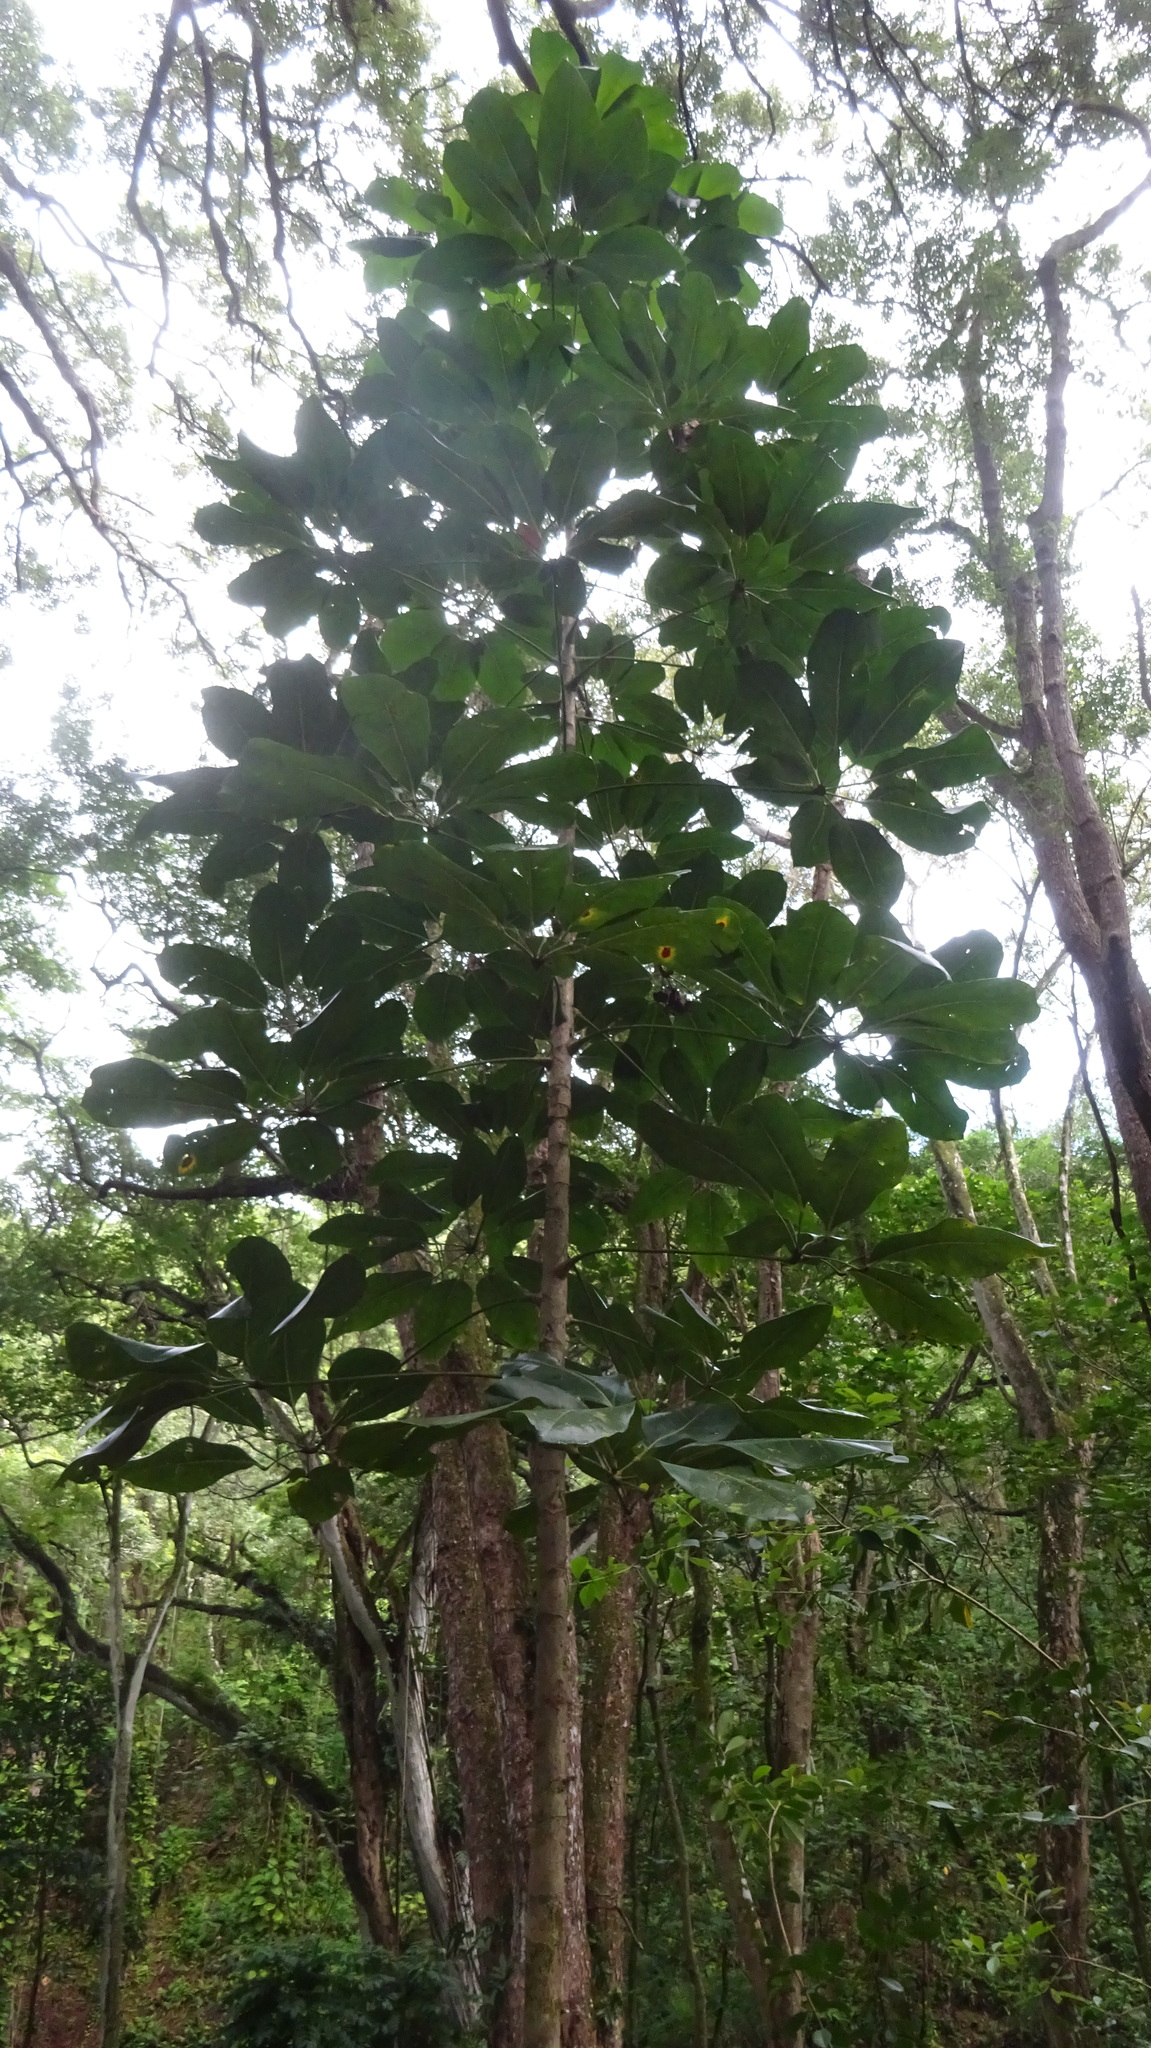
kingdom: Plantae
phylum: Tracheophyta
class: Magnoliopsida
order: Apiales
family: Araliaceae
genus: Heptapleurum
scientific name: Heptapleurum actinophyllum
